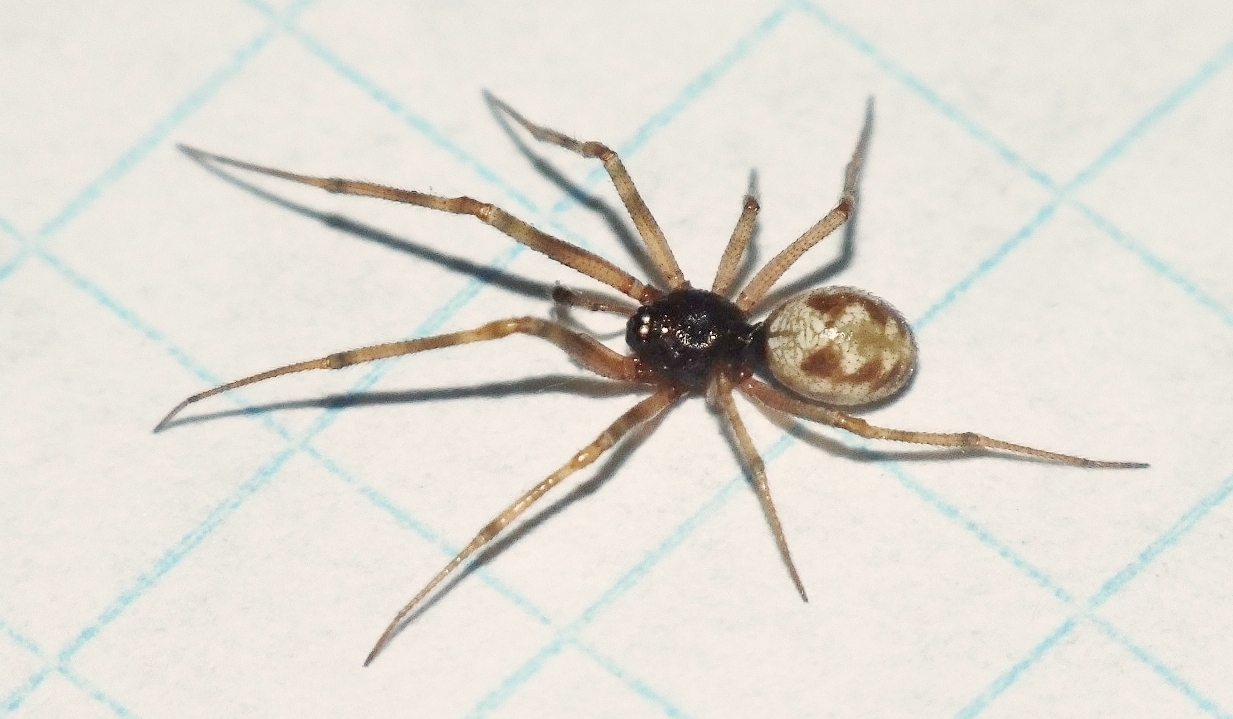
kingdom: Animalia
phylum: Arthropoda
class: Arachnida
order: Araneae
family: Theridiidae
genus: Steatoda
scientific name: Steatoda triangulosa
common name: Triangulate bud spider
